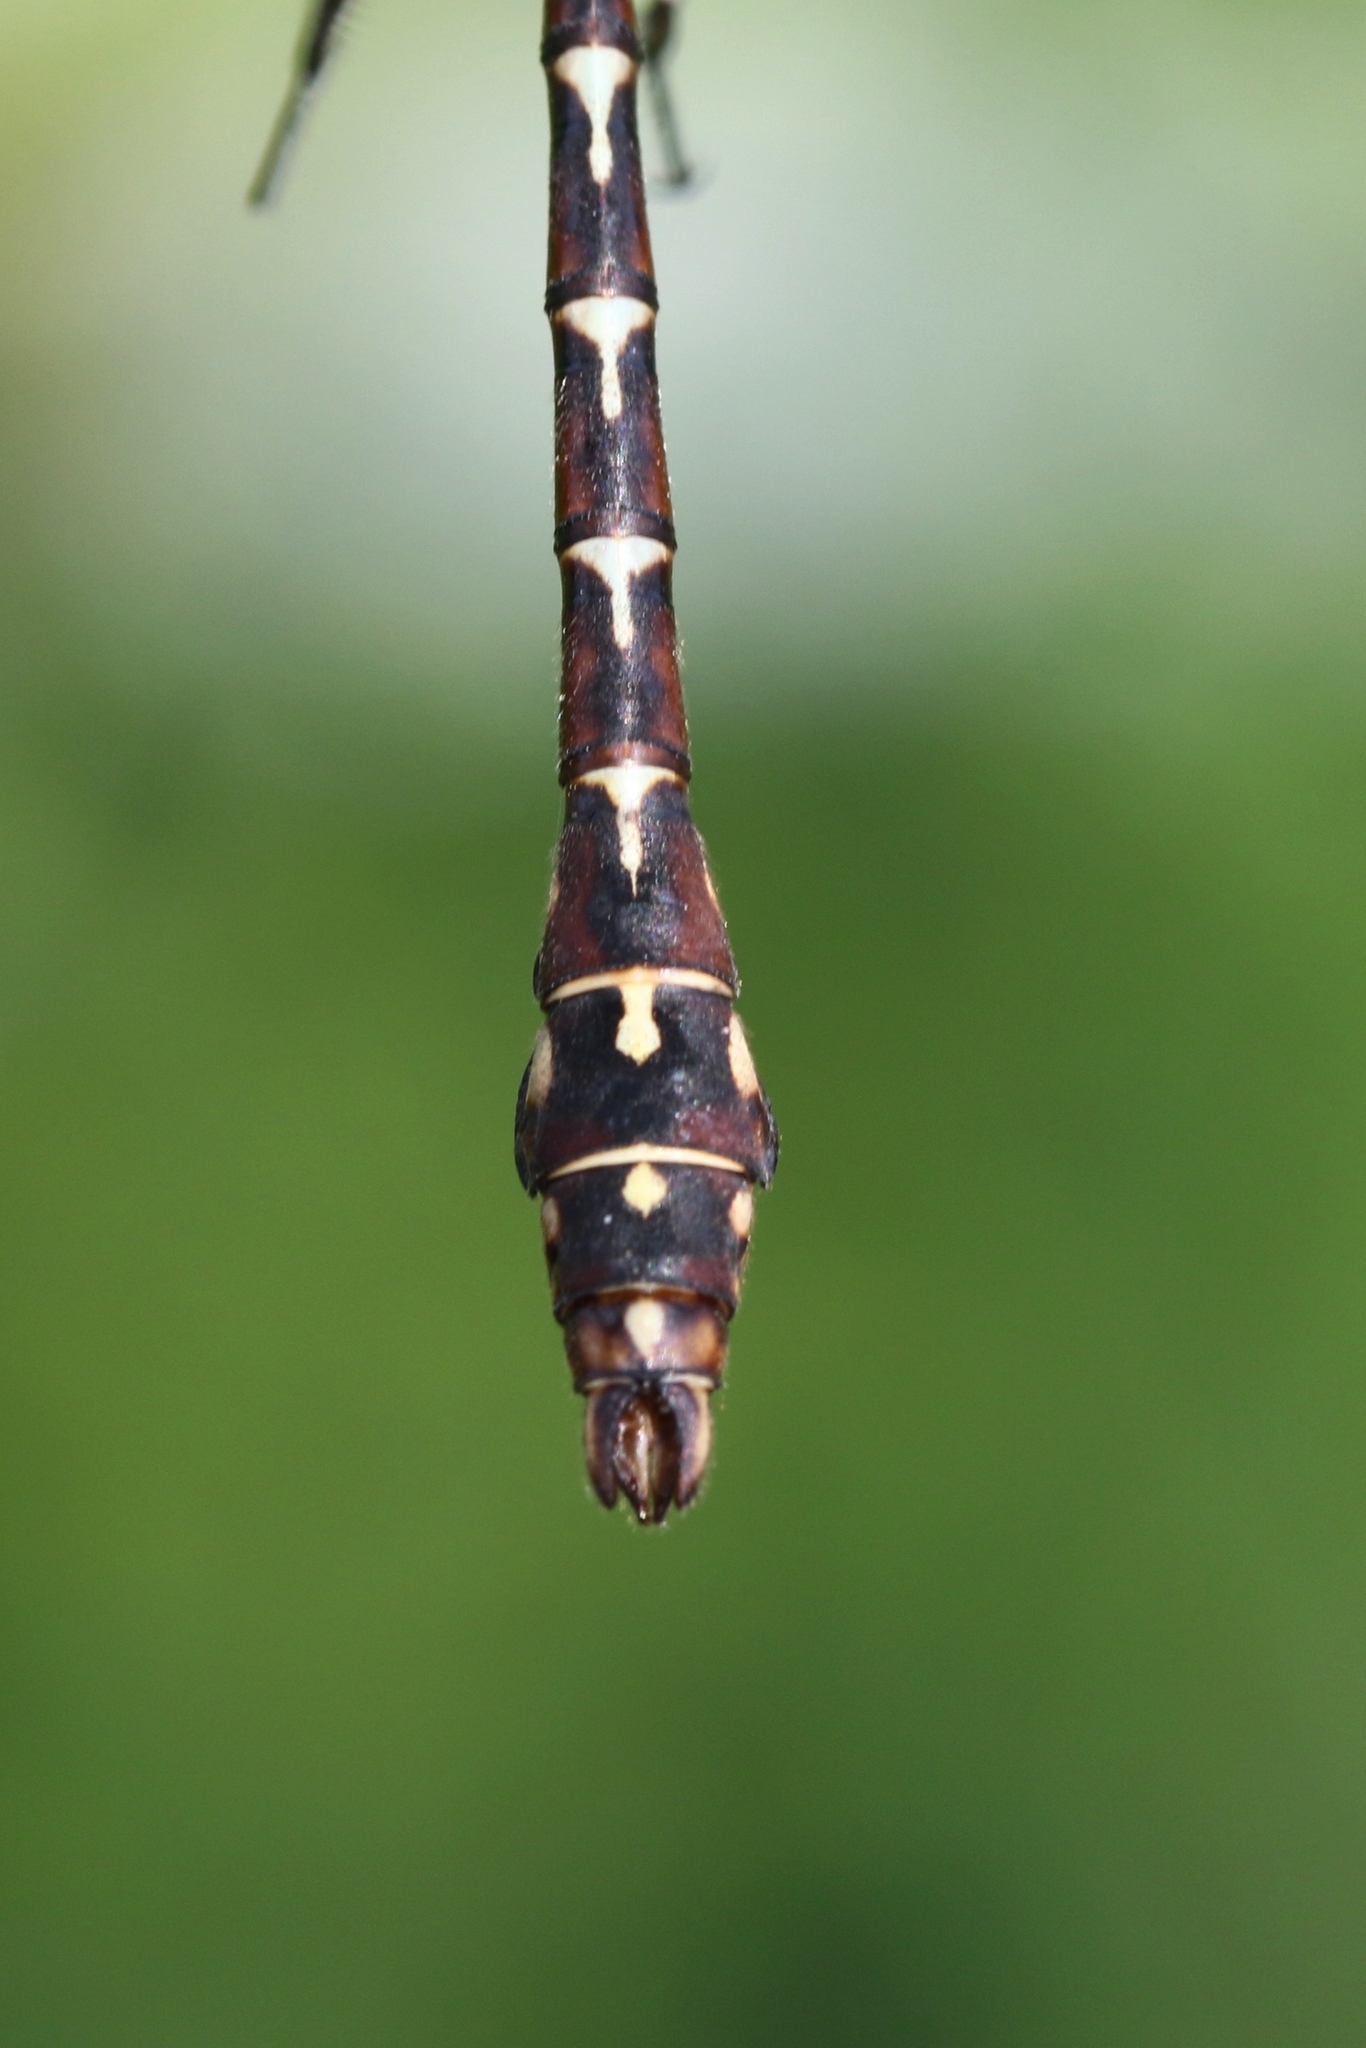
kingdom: Animalia
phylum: Arthropoda
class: Insecta
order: Odonata
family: Gomphidae
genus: Ophiogomphus
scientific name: Ophiogomphus colubrinus
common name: Boreal snaketail
